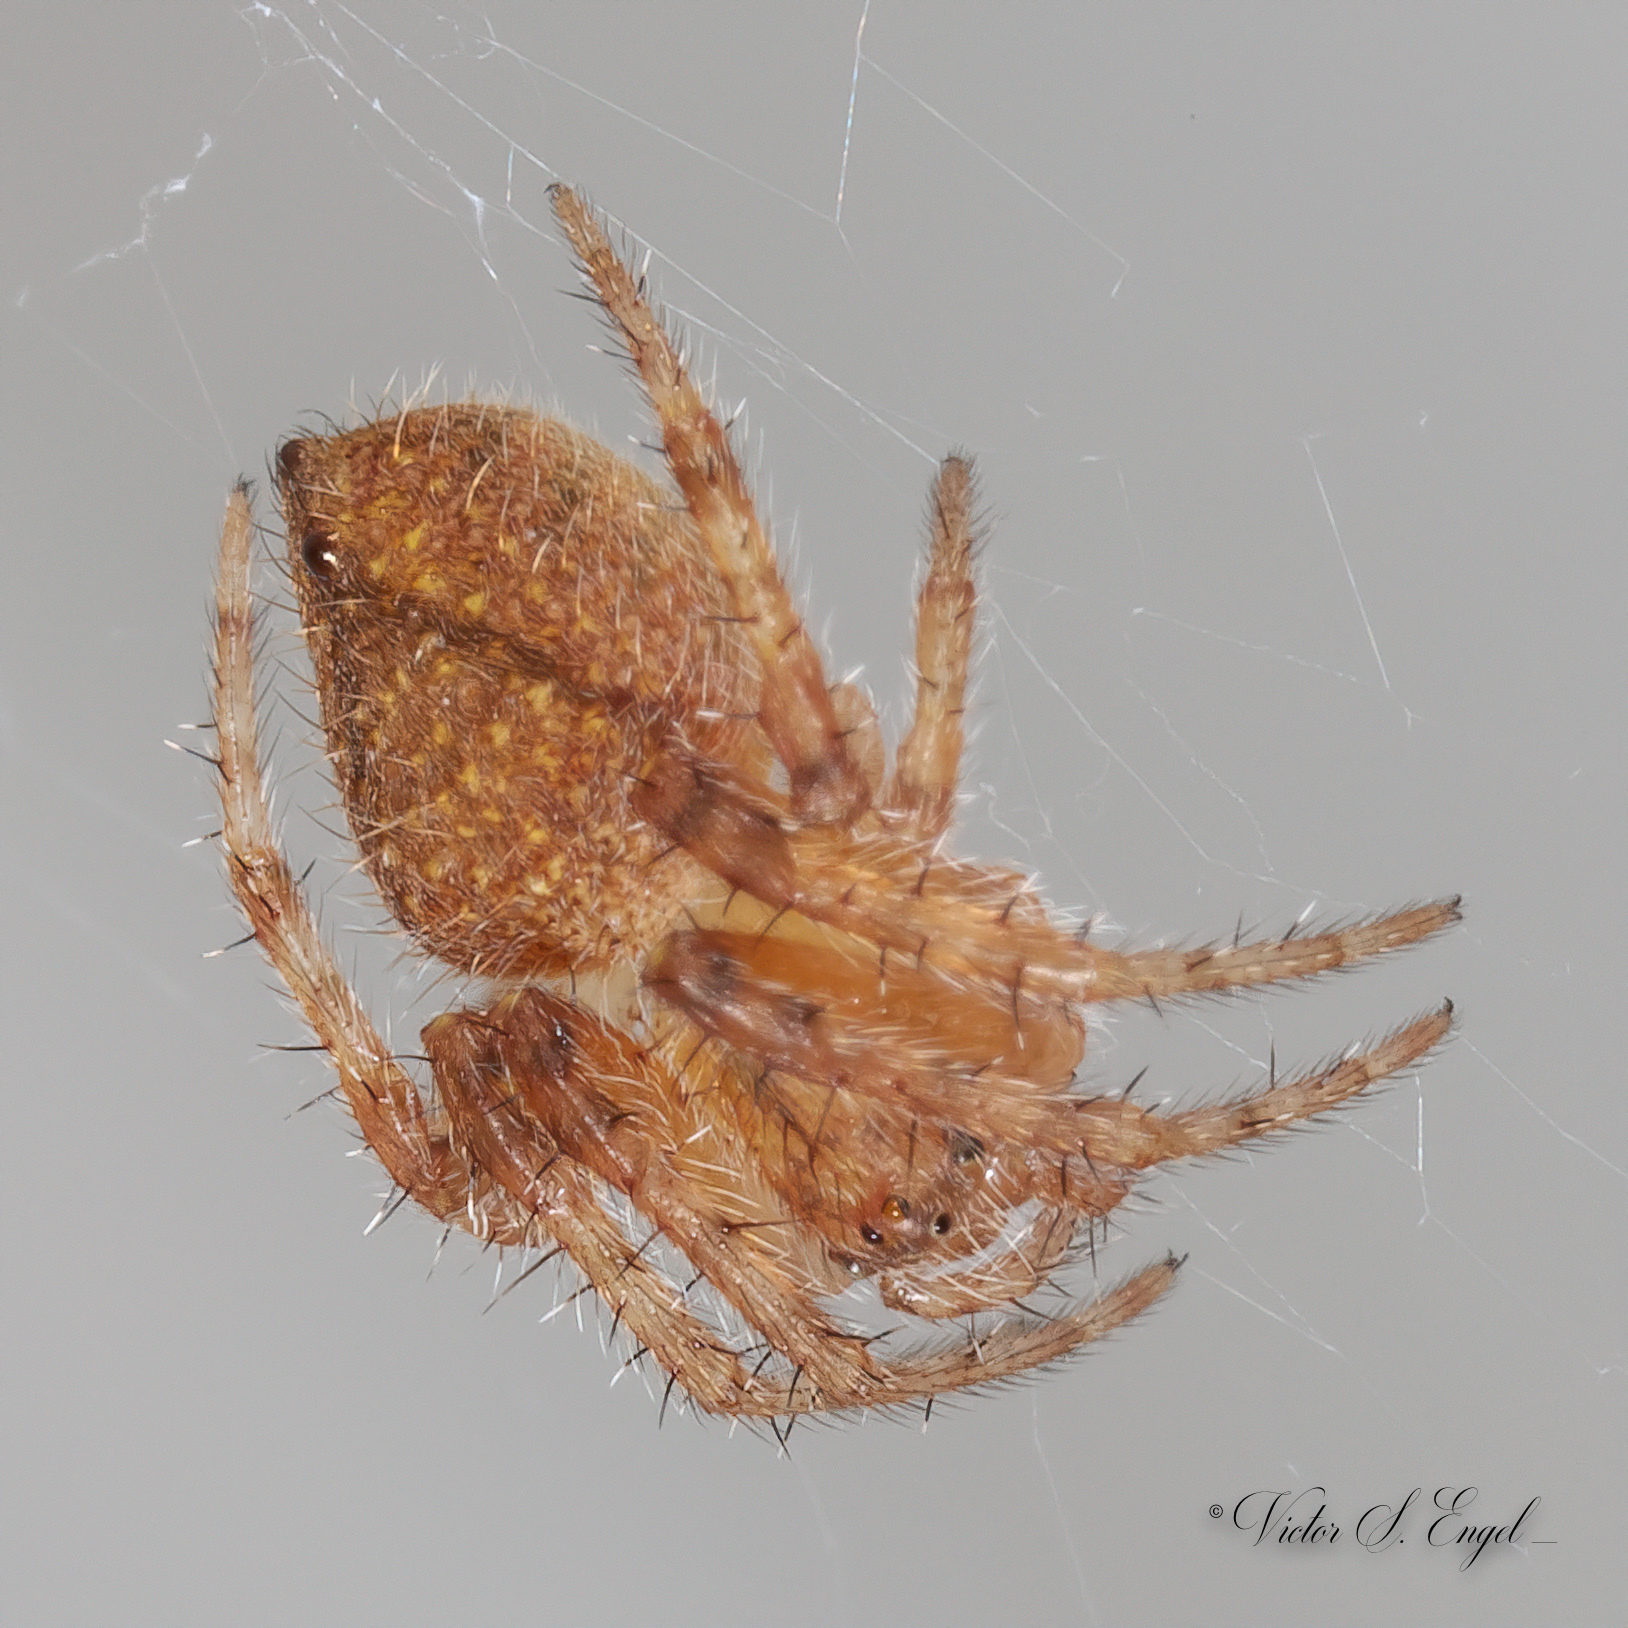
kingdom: Animalia
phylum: Arthropoda
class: Arachnida
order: Araneae
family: Araneidae
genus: Eriophora
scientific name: Eriophora edax
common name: Orb weavers
